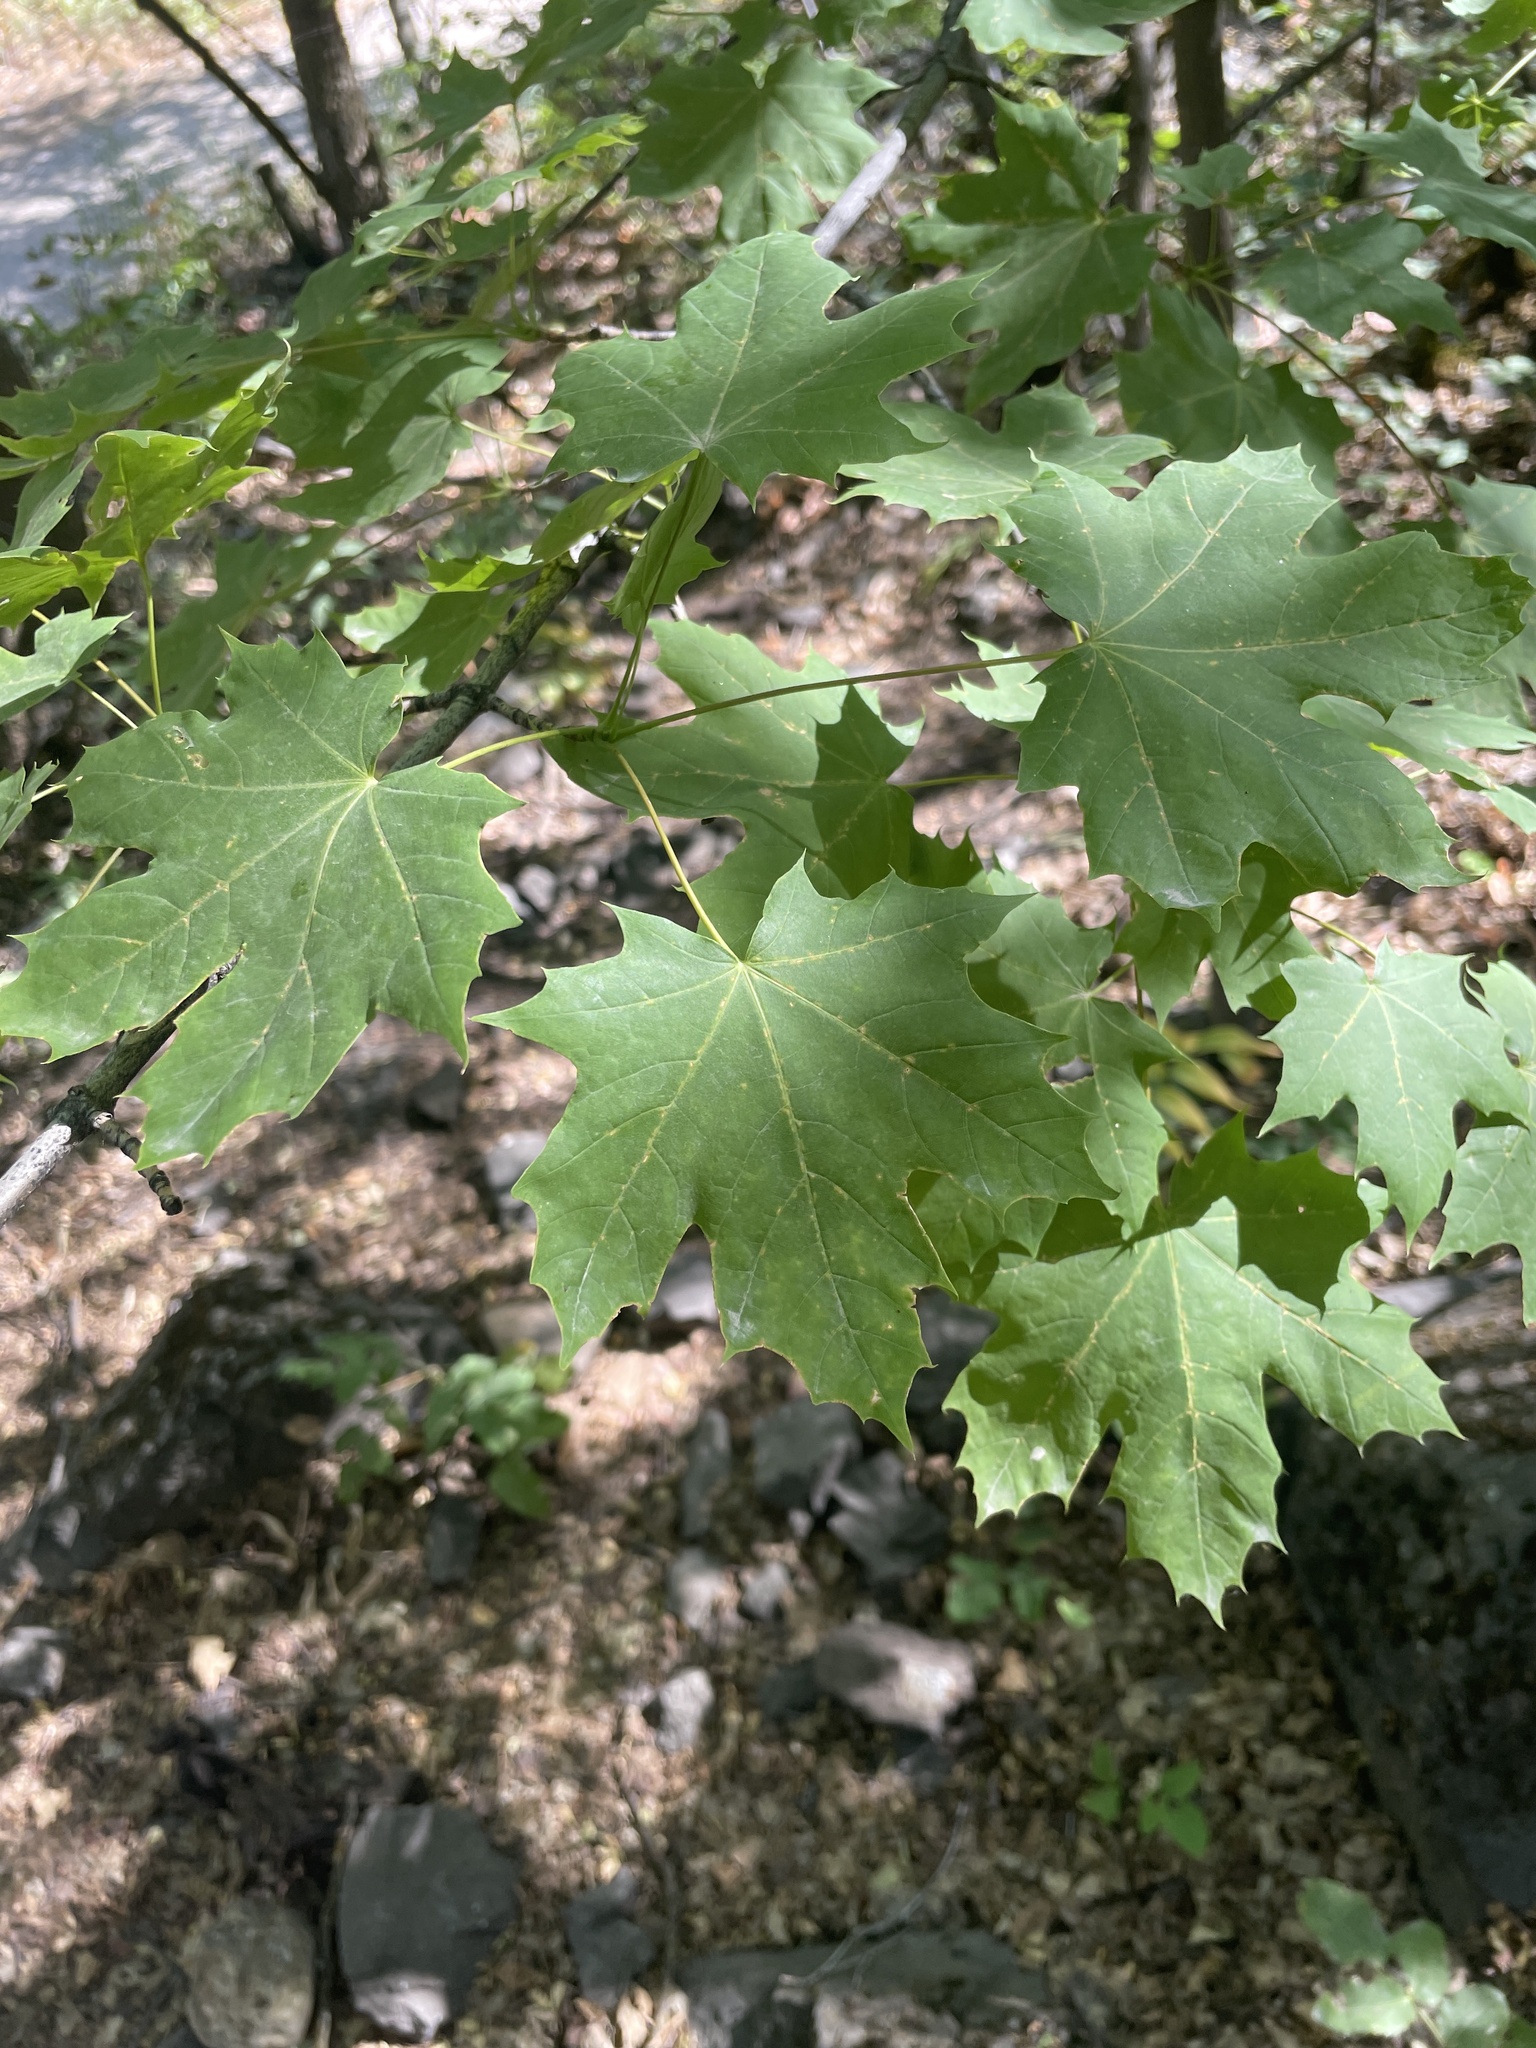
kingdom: Plantae
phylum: Tracheophyta
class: Magnoliopsida
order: Sapindales
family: Sapindaceae
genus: Acer
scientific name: Acer platanoides
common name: Norway maple
